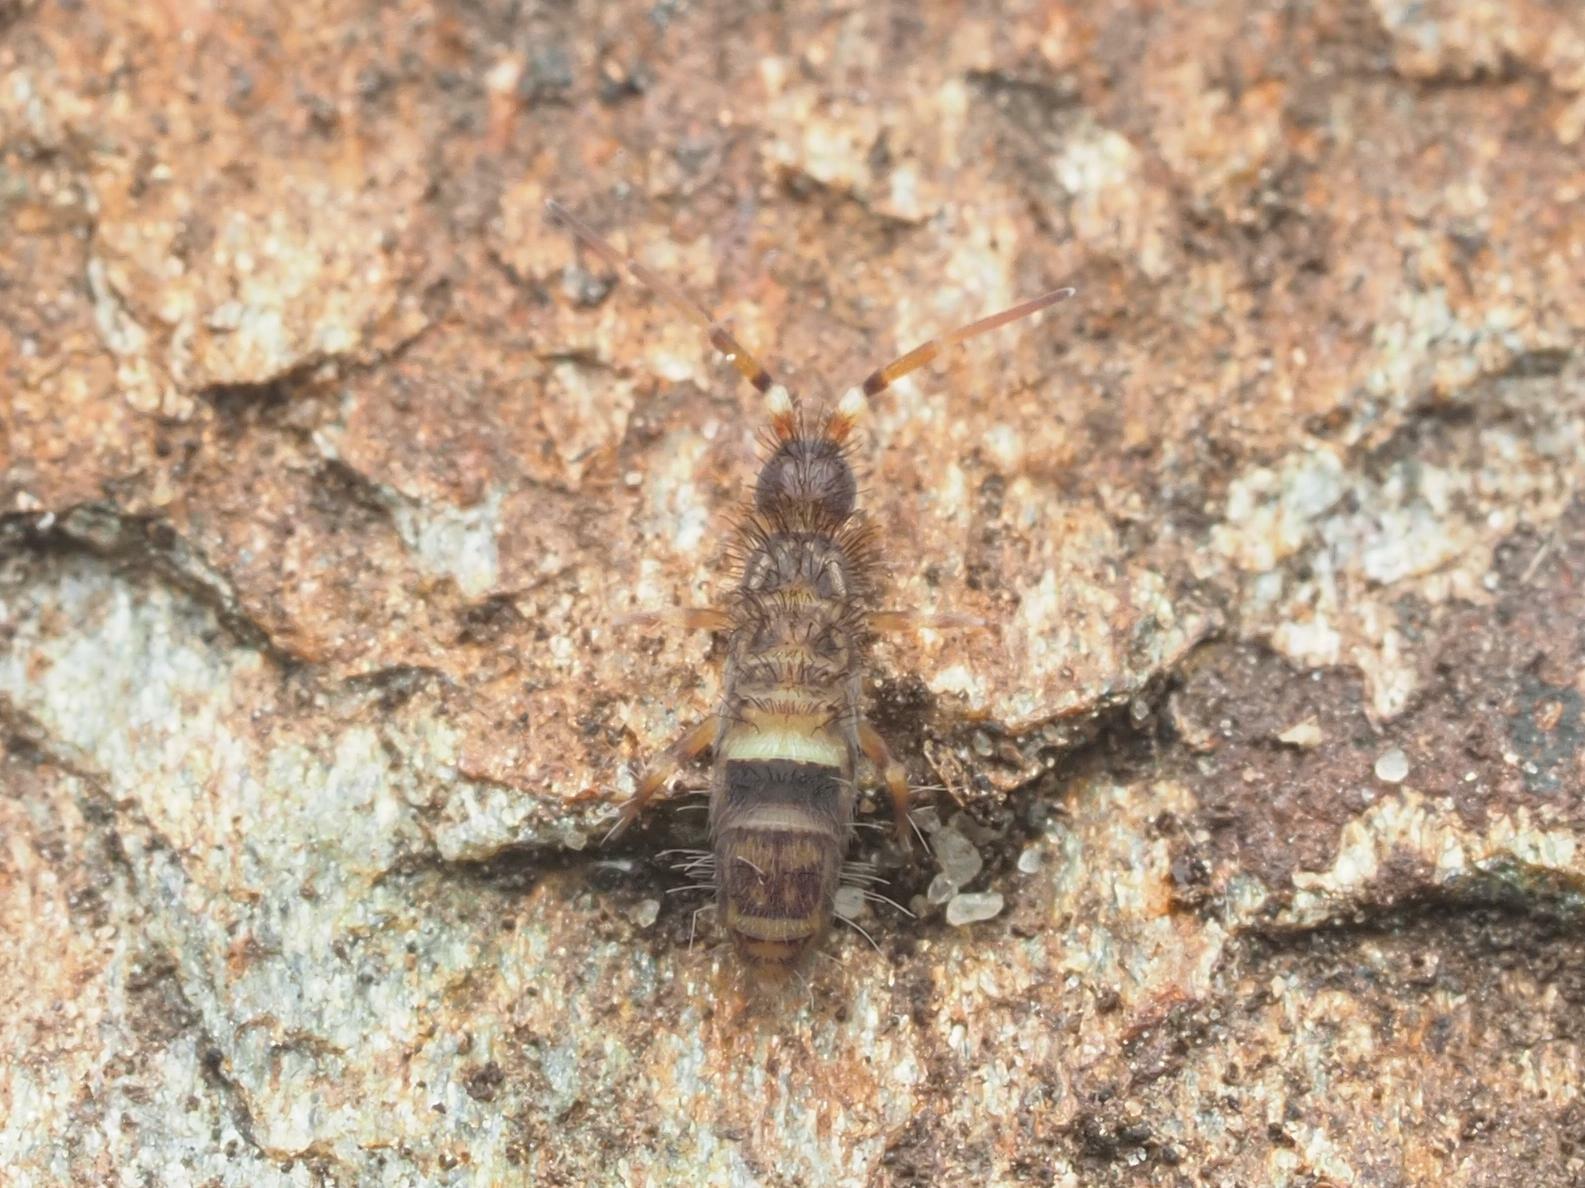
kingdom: Animalia
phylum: Arthropoda
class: Collembola
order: Entomobryomorpha
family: Orchesellidae
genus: Orchesella
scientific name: Orchesella cincta
